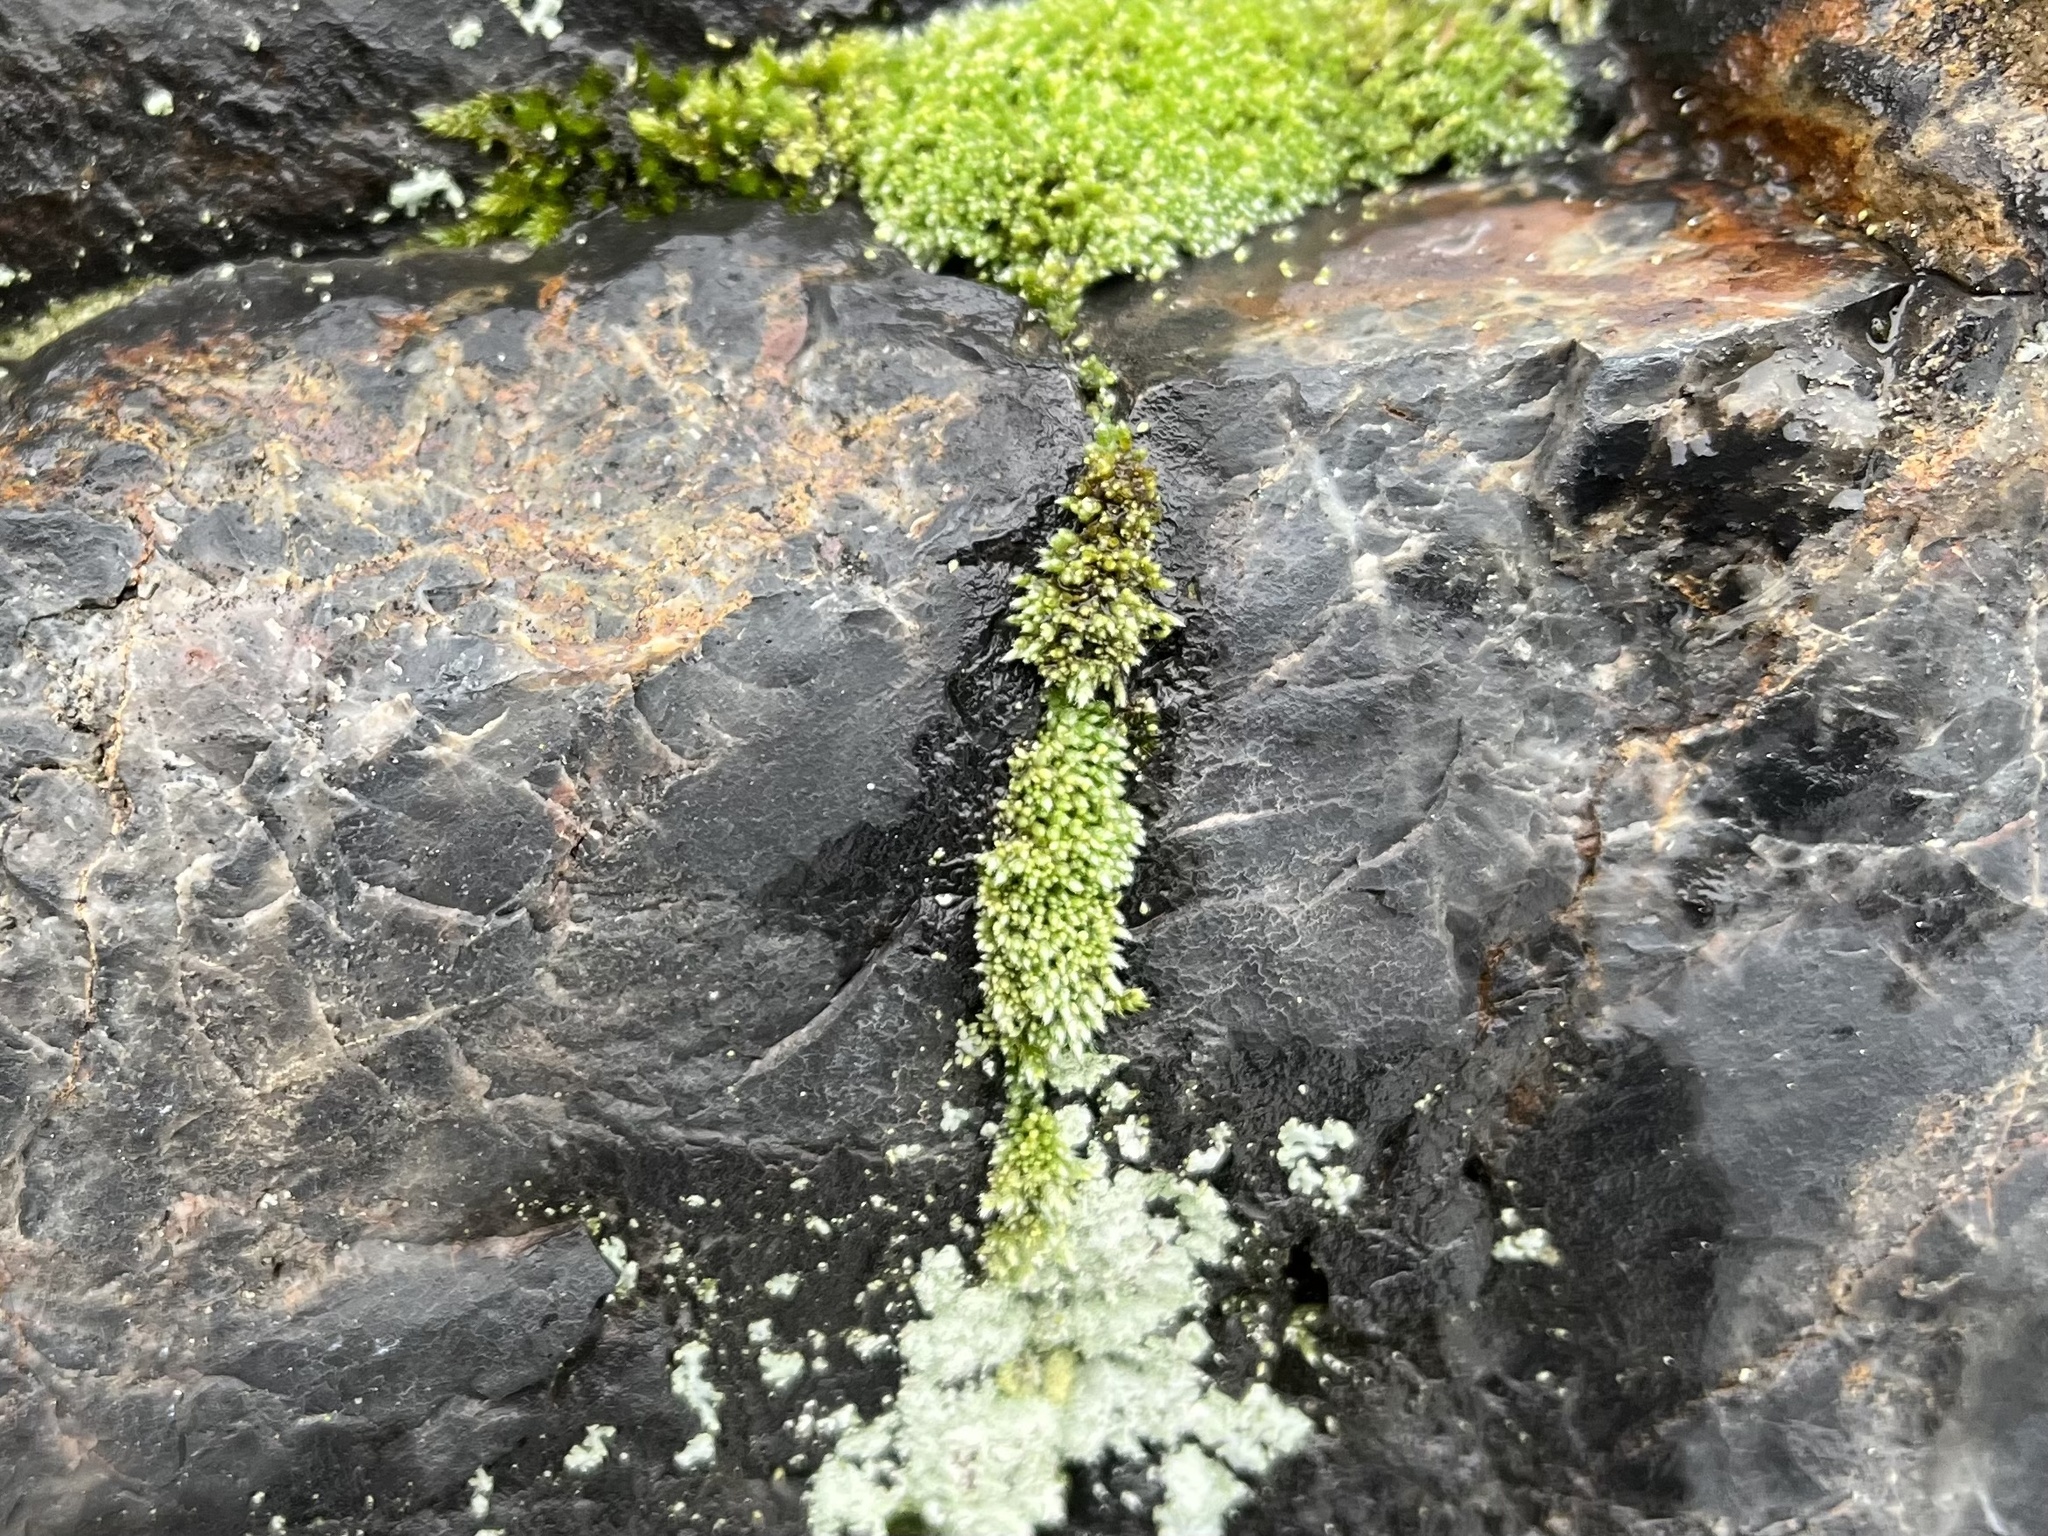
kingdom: Plantae
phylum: Bryophyta
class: Bryopsida
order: Bryales
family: Bryaceae
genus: Bryum
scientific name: Bryum argenteum
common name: Silver-moss
